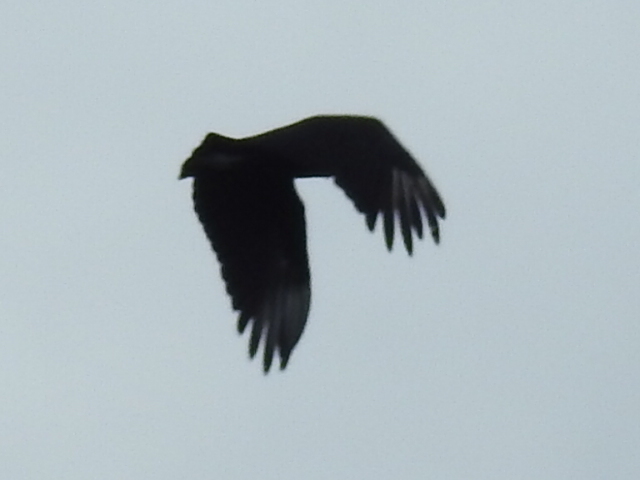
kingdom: Animalia
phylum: Chordata
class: Aves
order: Accipitriformes
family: Cathartidae
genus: Coragyps
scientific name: Coragyps atratus
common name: Black vulture
